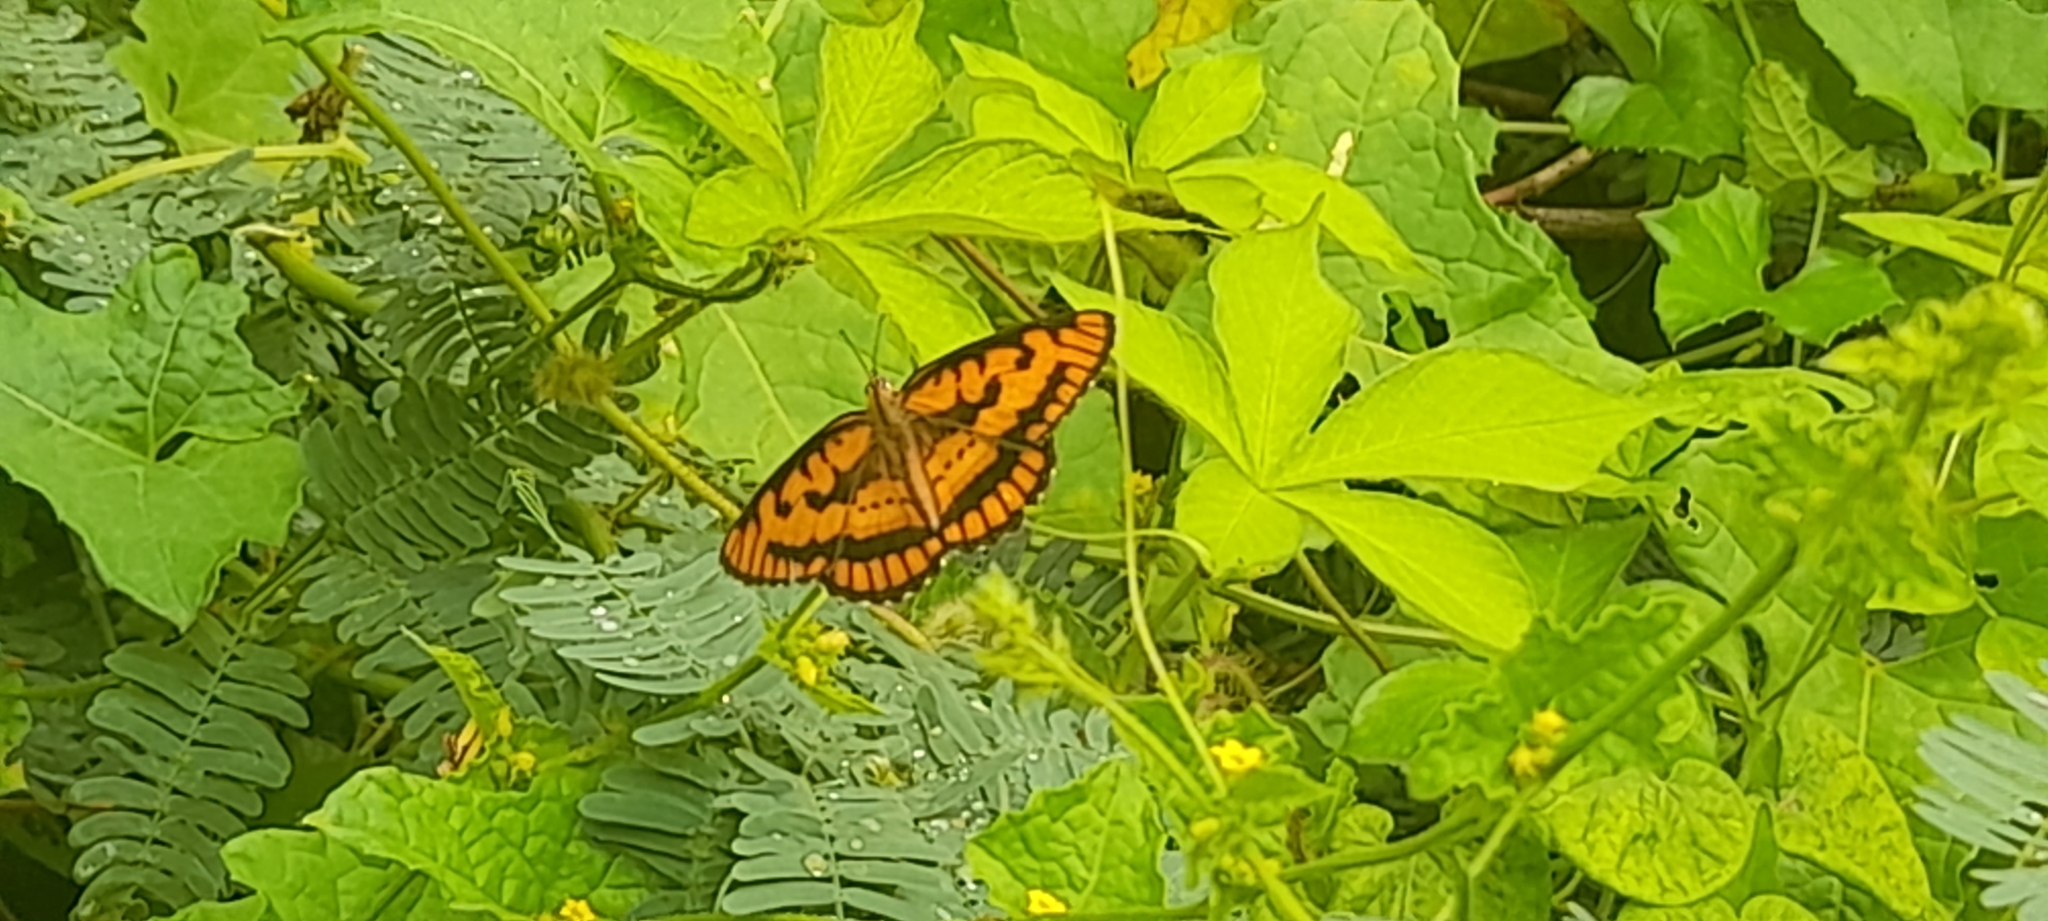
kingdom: Animalia
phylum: Arthropoda
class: Insecta
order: Lepidoptera
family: Nymphalidae
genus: Byblia
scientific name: Byblia ilithyia
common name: Spotted joker
